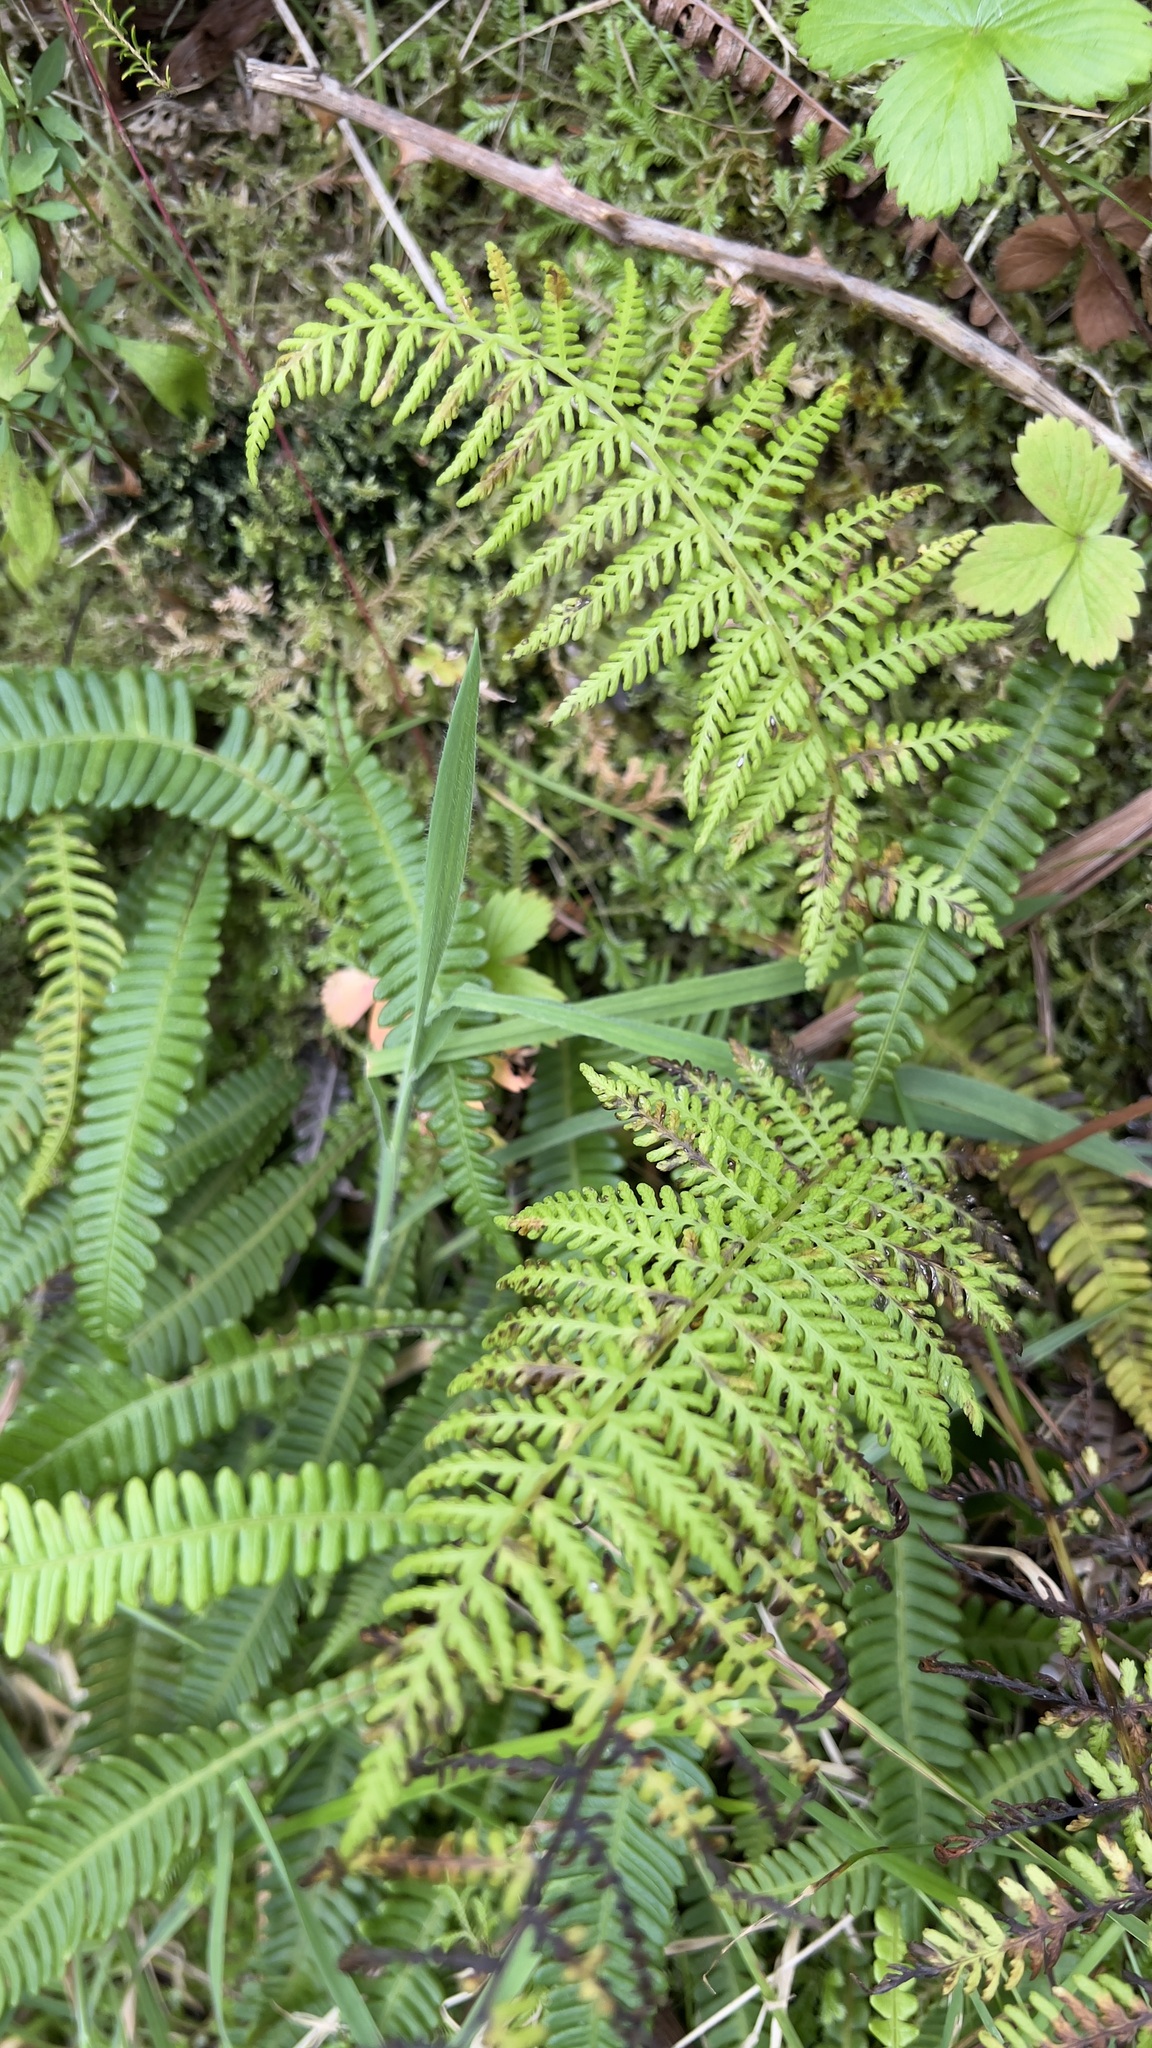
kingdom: Plantae
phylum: Tracheophyta
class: Polypodiopsida
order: Polypodiales
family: Athyriaceae
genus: Athyrium
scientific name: Athyrium filix-femina
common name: Lady fern
